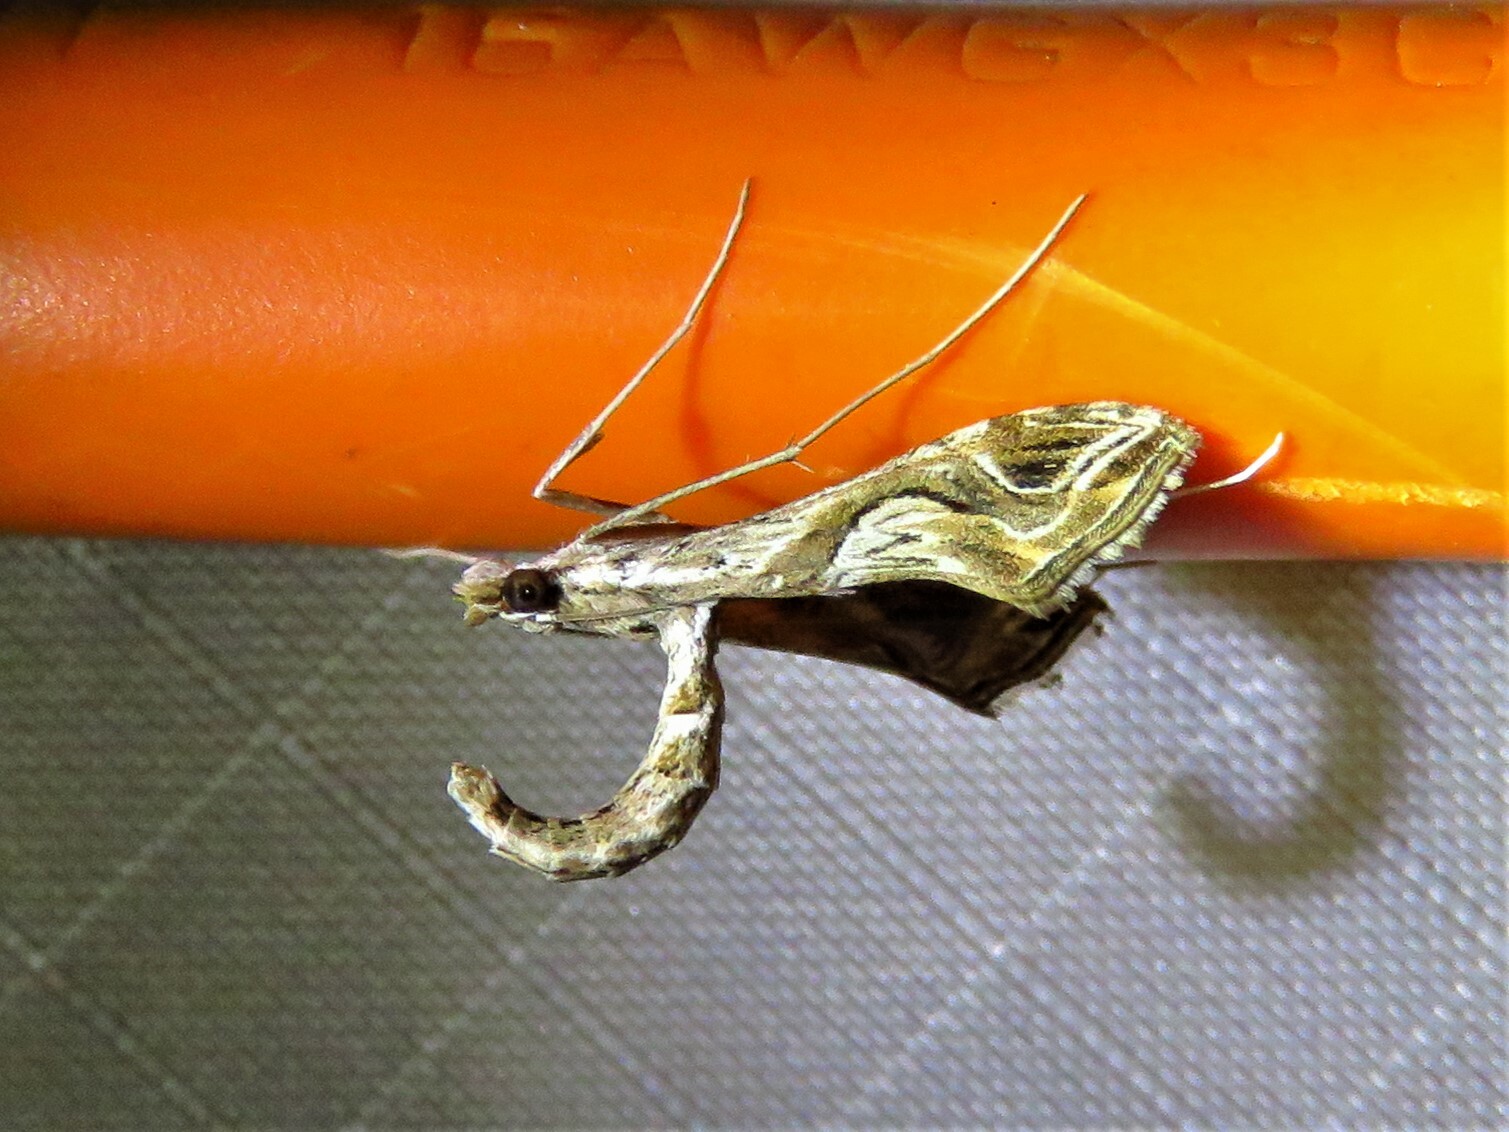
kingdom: Animalia
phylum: Arthropoda
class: Insecta
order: Lepidoptera
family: Crambidae
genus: Lineodes
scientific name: Lineodes integra
